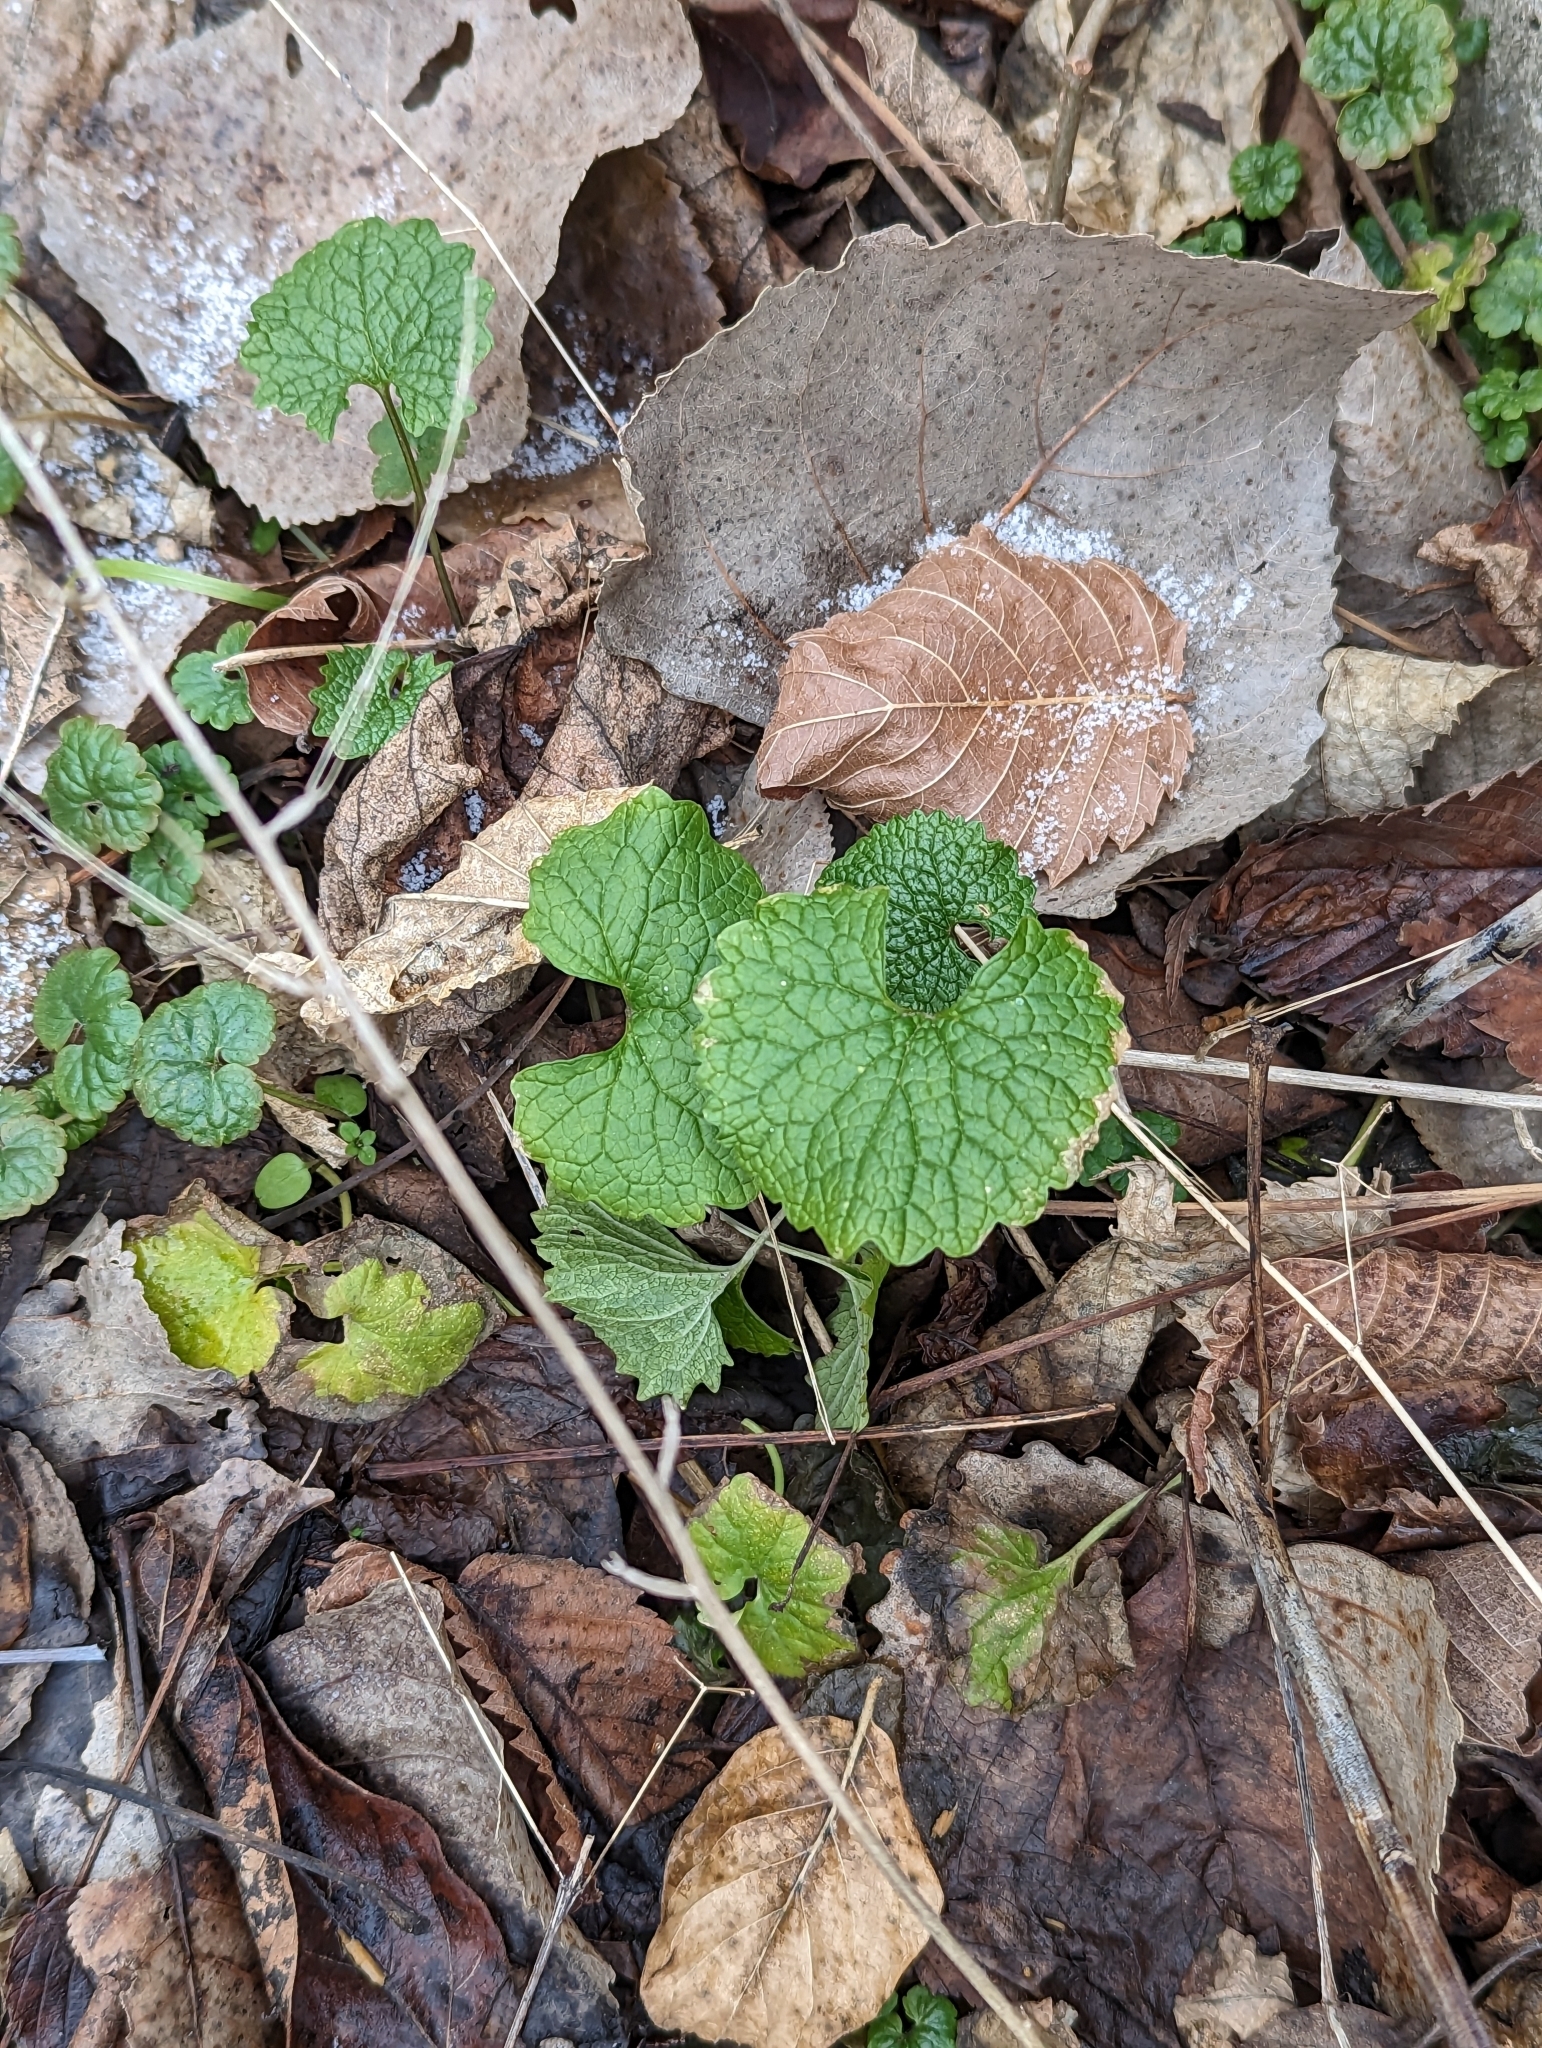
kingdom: Plantae
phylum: Tracheophyta
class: Magnoliopsida
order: Brassicales
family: Brassicaceae
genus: Alliaria
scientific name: Alliaria petiolata
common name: Garlic mustard
